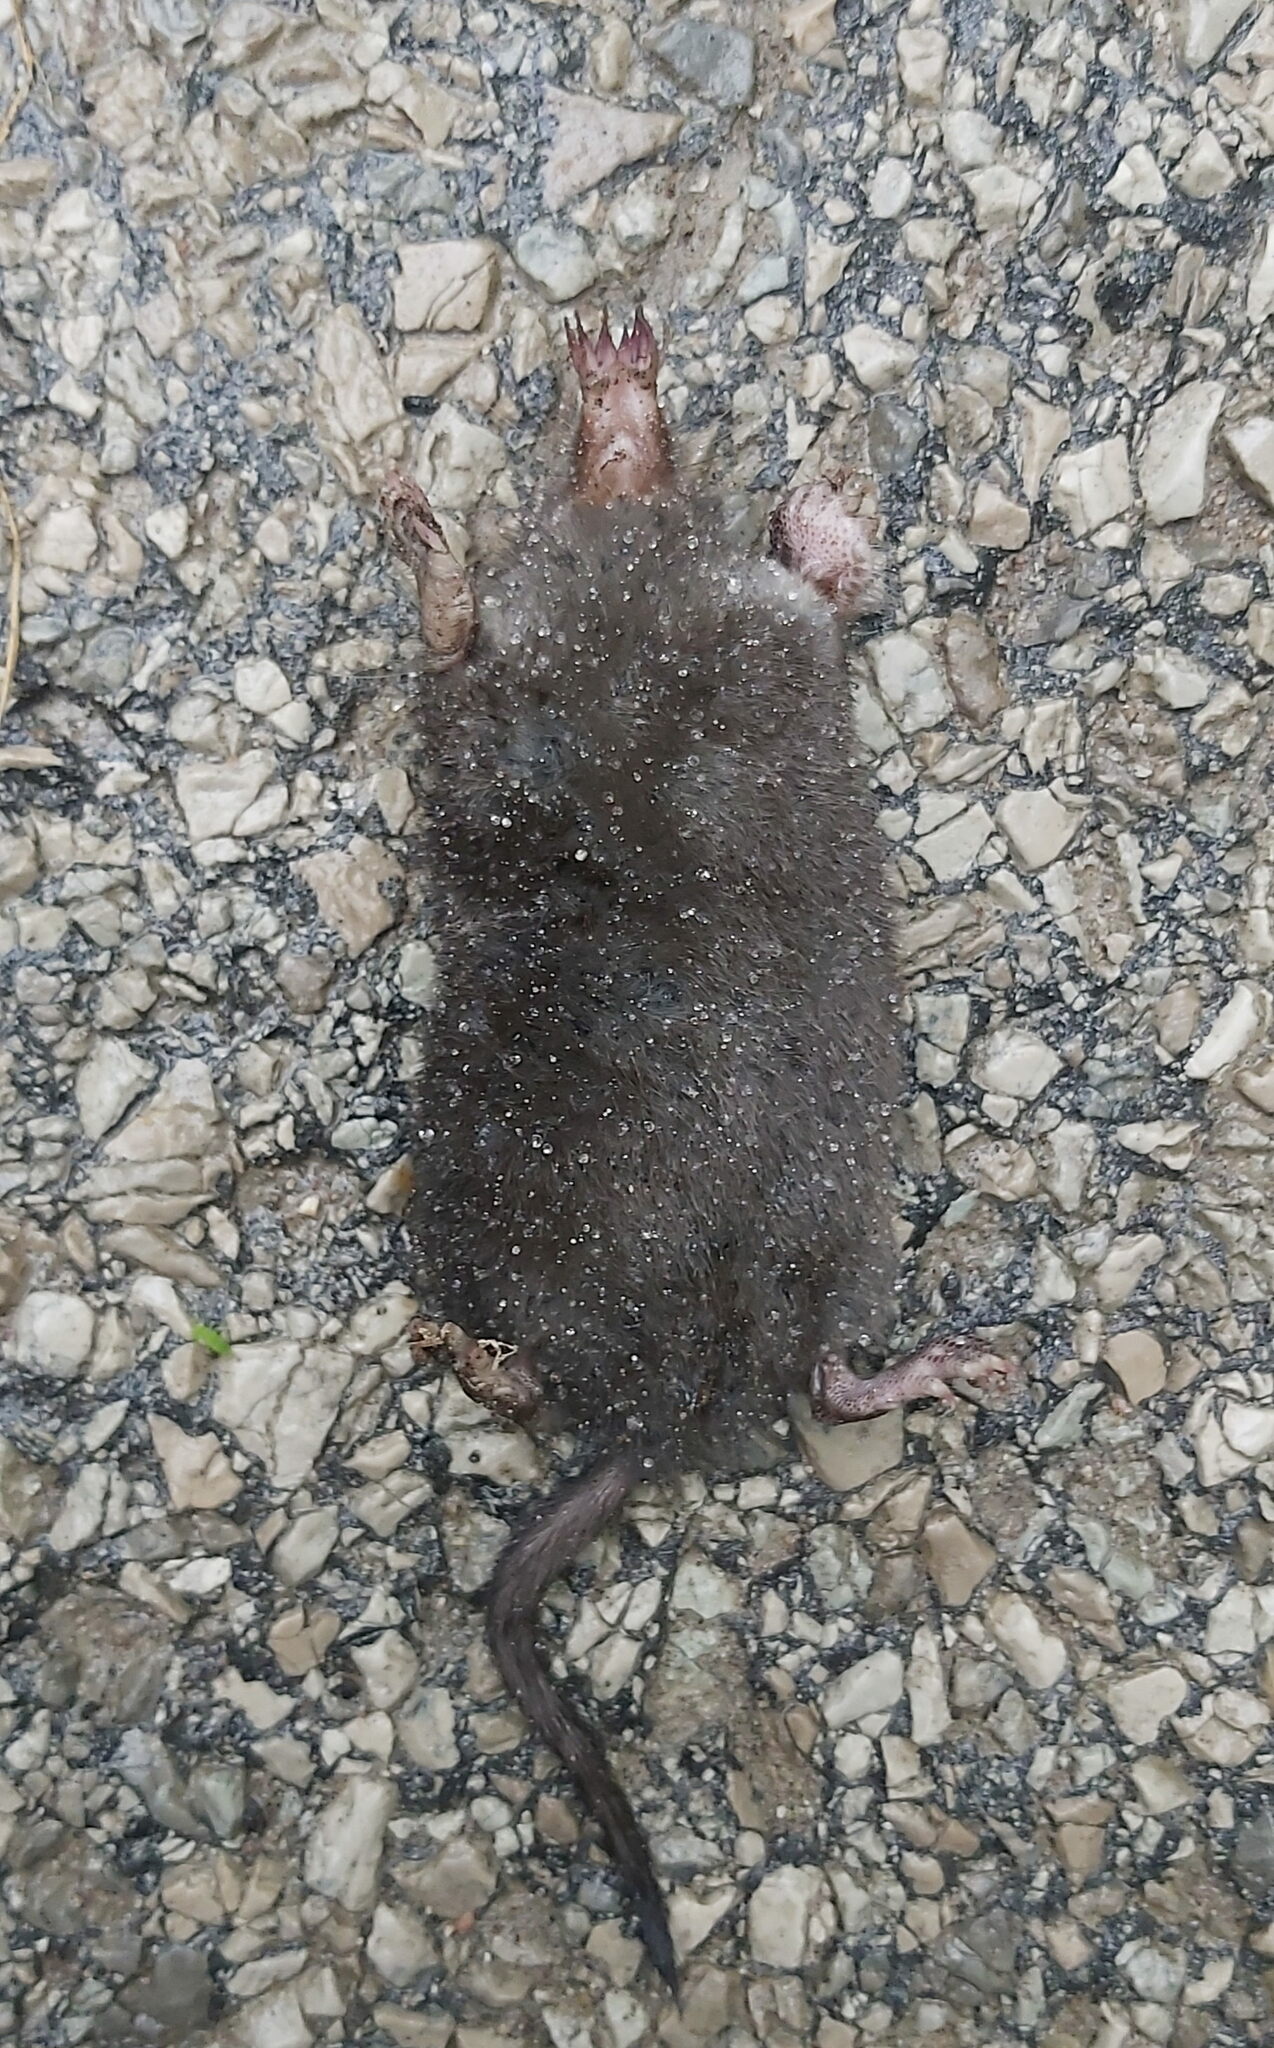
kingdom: Animalia
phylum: Chordata
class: Mammalia
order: Soricomorpha
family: Talpidae
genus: Condylura
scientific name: Condylura cristata
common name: Star-nosed mole
